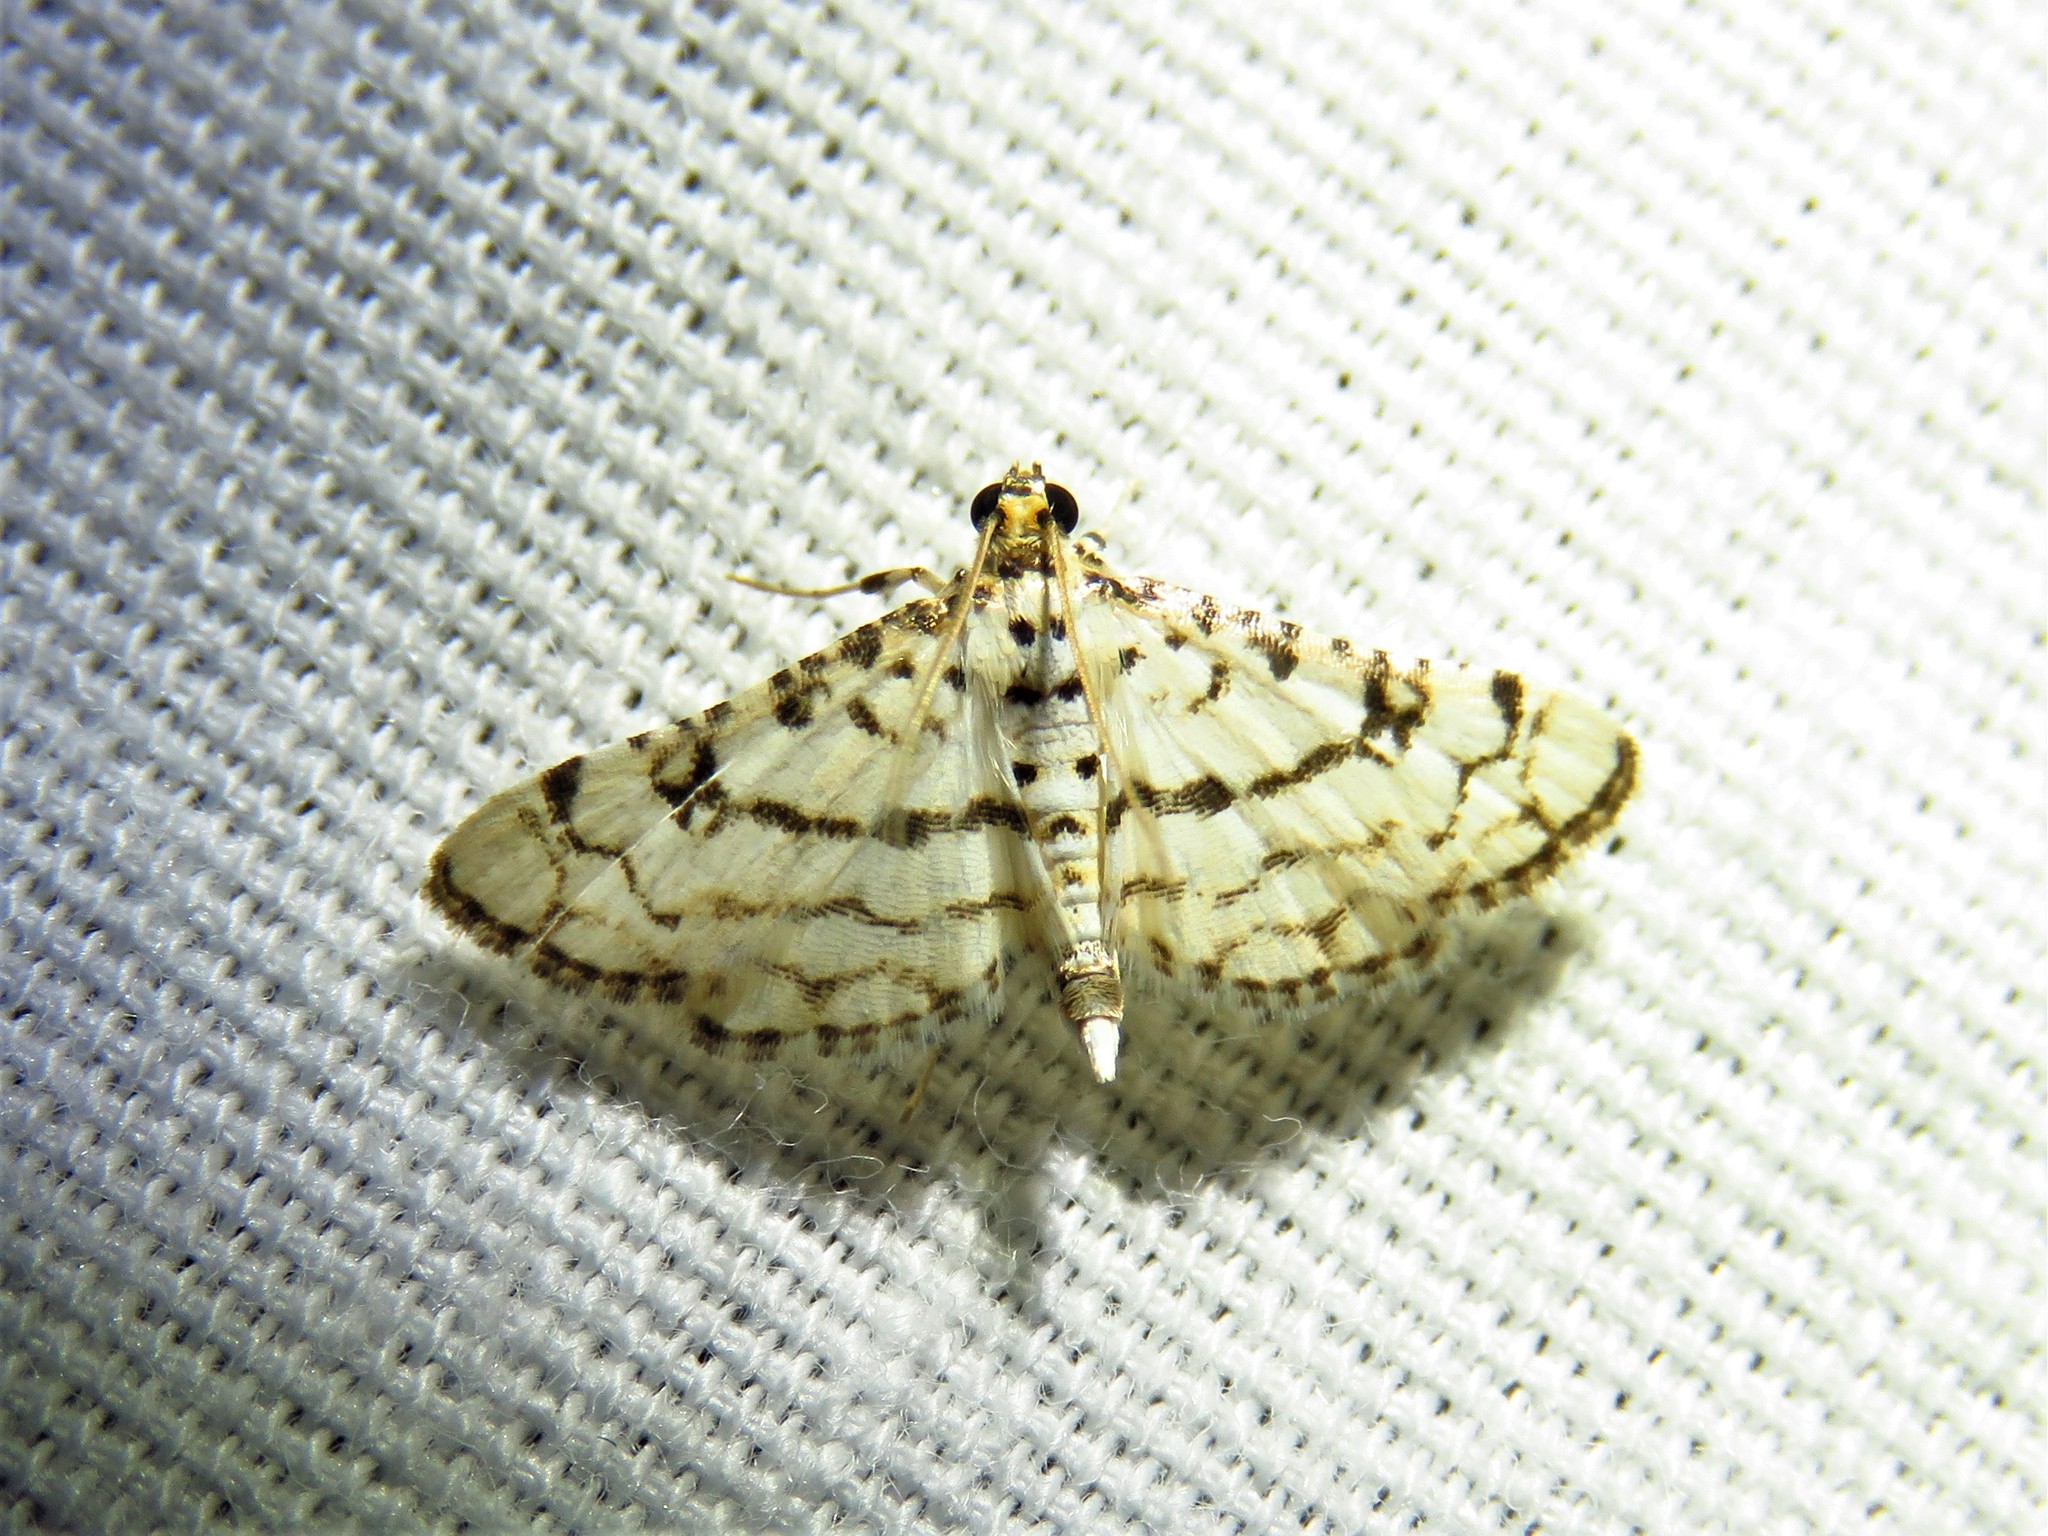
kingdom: Animalia
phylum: Arthropoda
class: Insecta
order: Lepidoptera
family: Crambidae
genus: Hileithia
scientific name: Hileithia rehamalis
